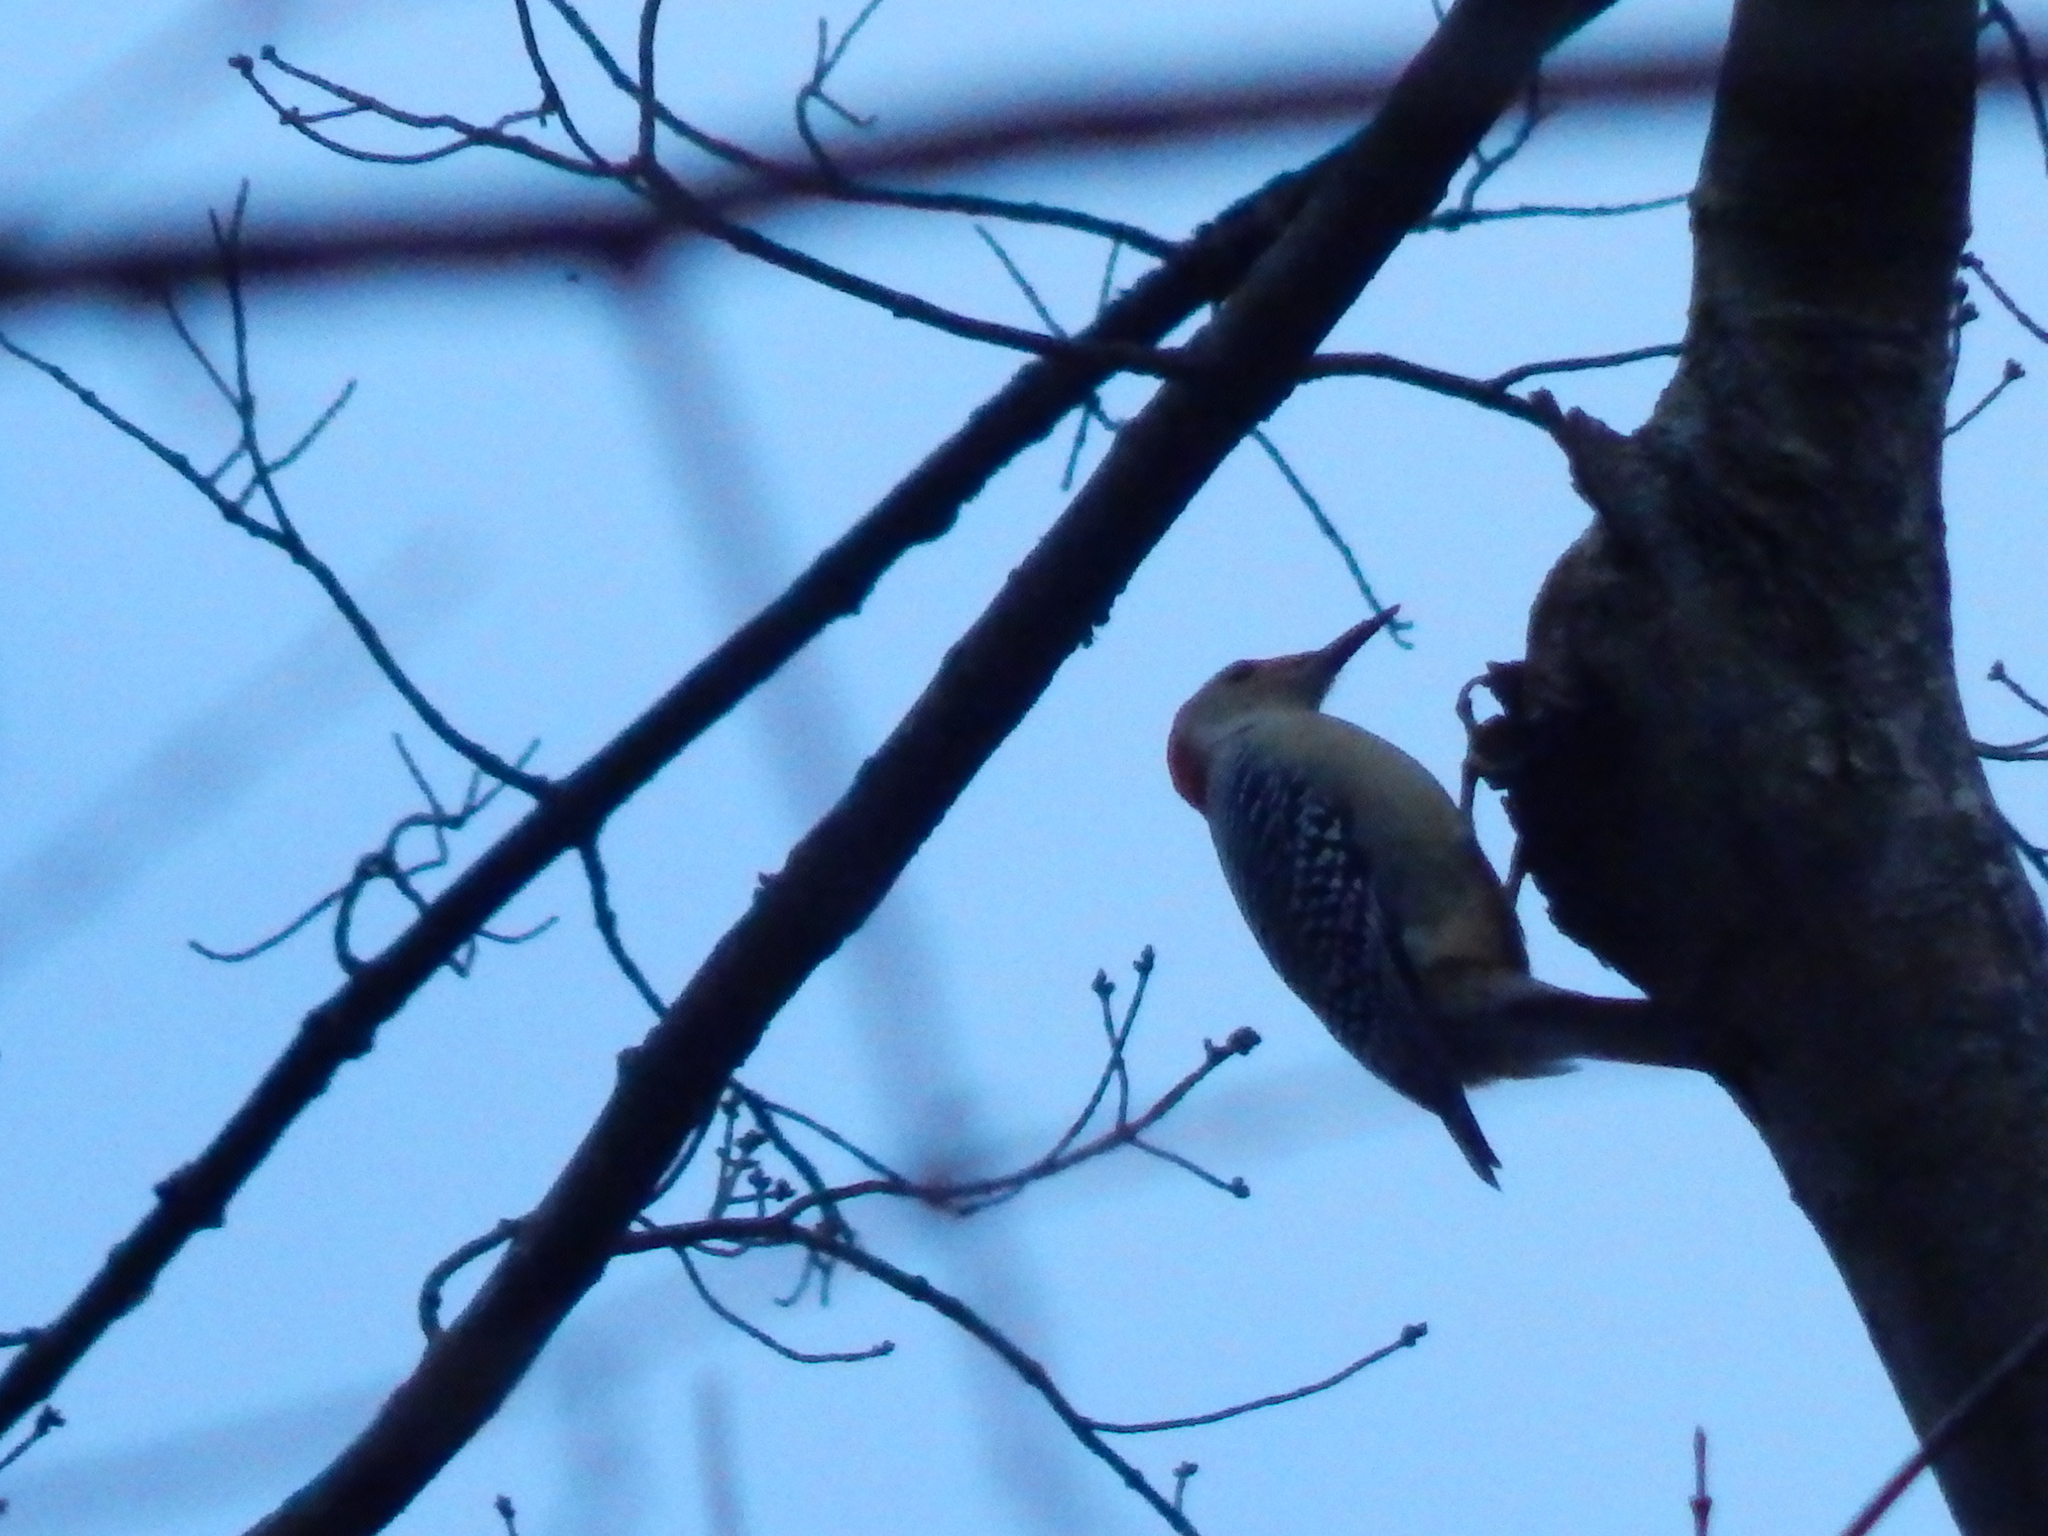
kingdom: Animalia
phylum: Chordata
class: Aves
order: Piciformes
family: Picidae
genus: Melanerpes
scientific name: Melanerpes carolinus
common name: Red-bellied woodpecker
